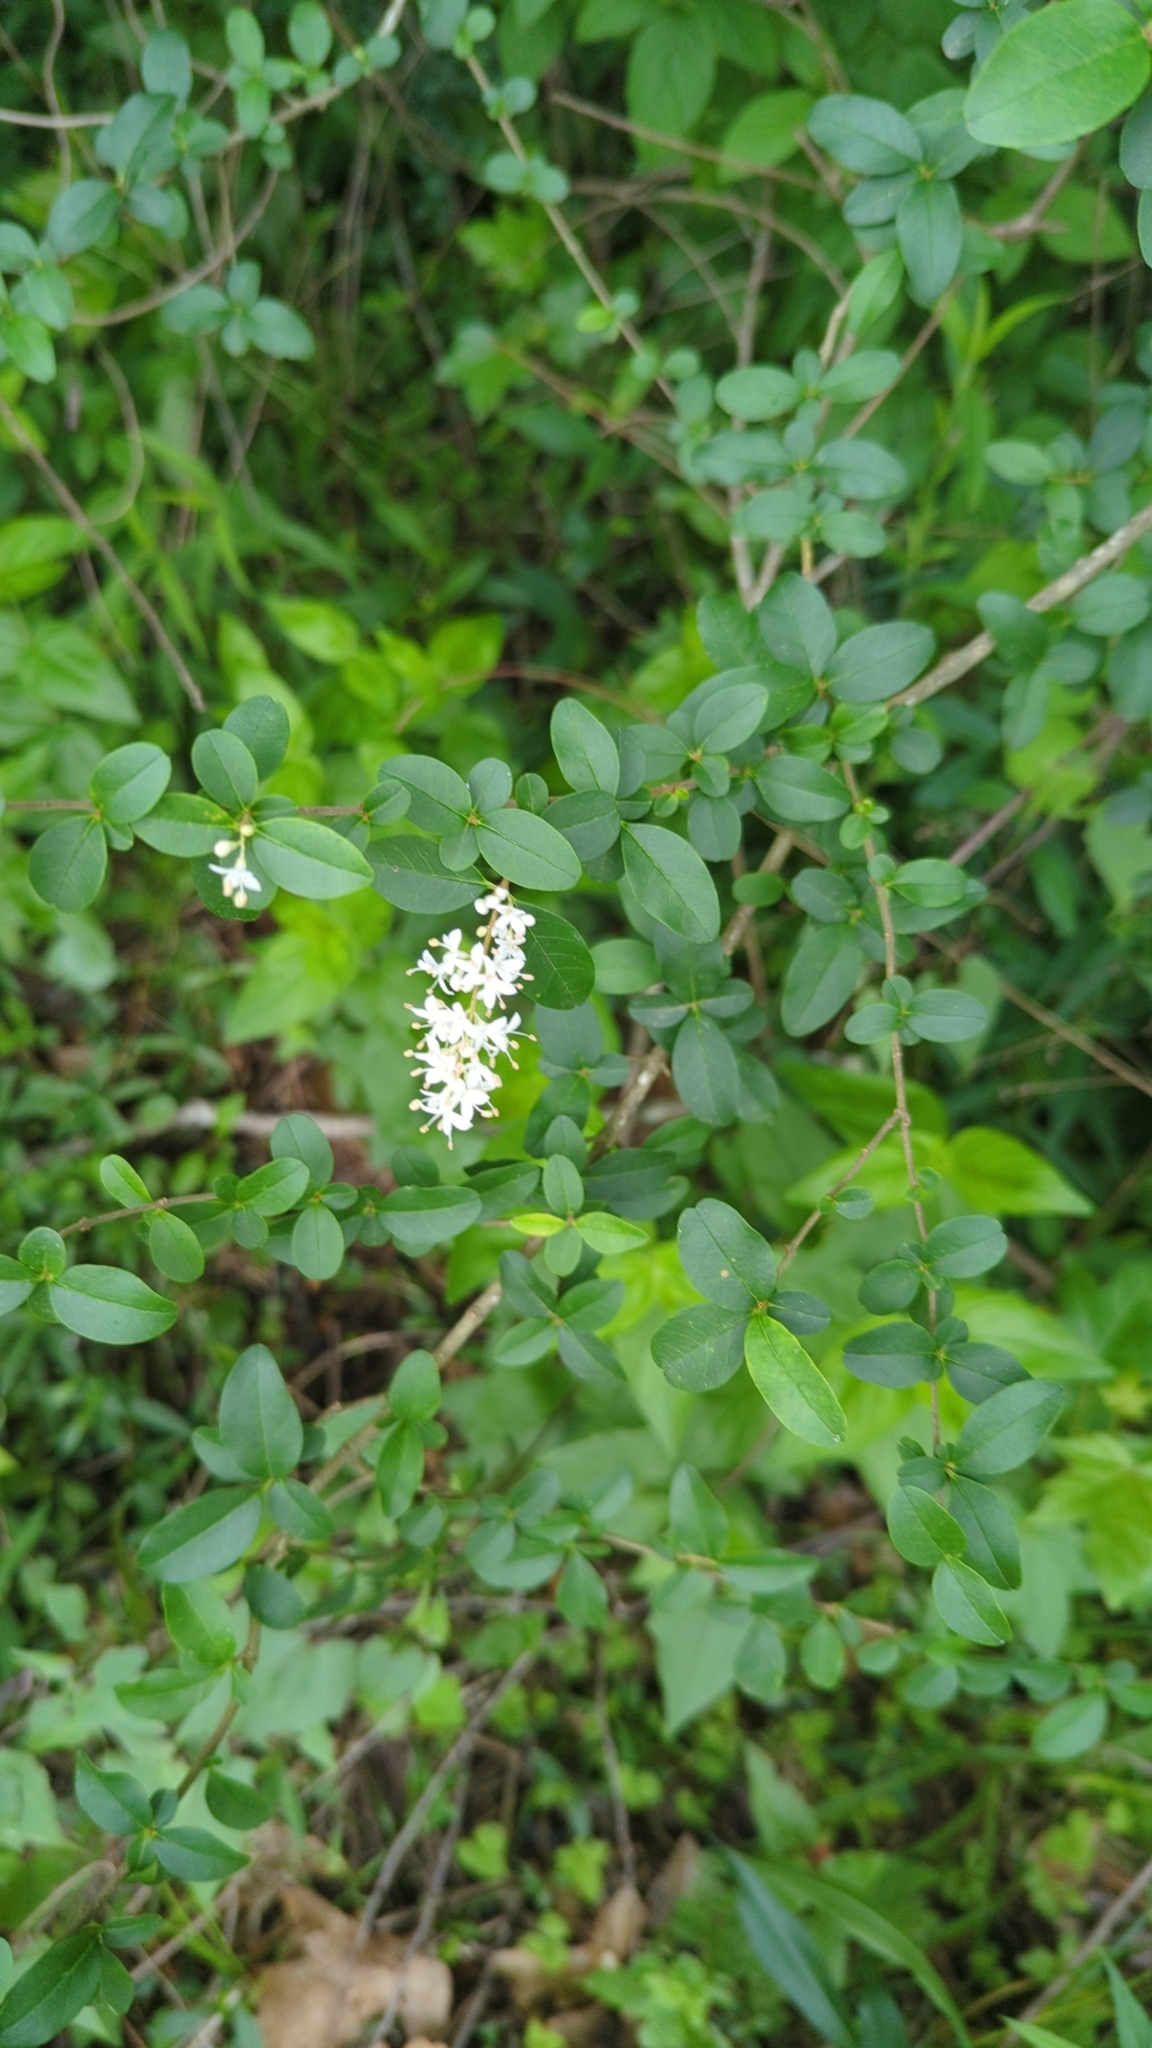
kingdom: Plantae
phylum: Tracheophyta
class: Magnoliopsida
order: Lamiales
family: Oleaceae
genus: Ligustrum
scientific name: Ligustrum sinense
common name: Chinese privet
